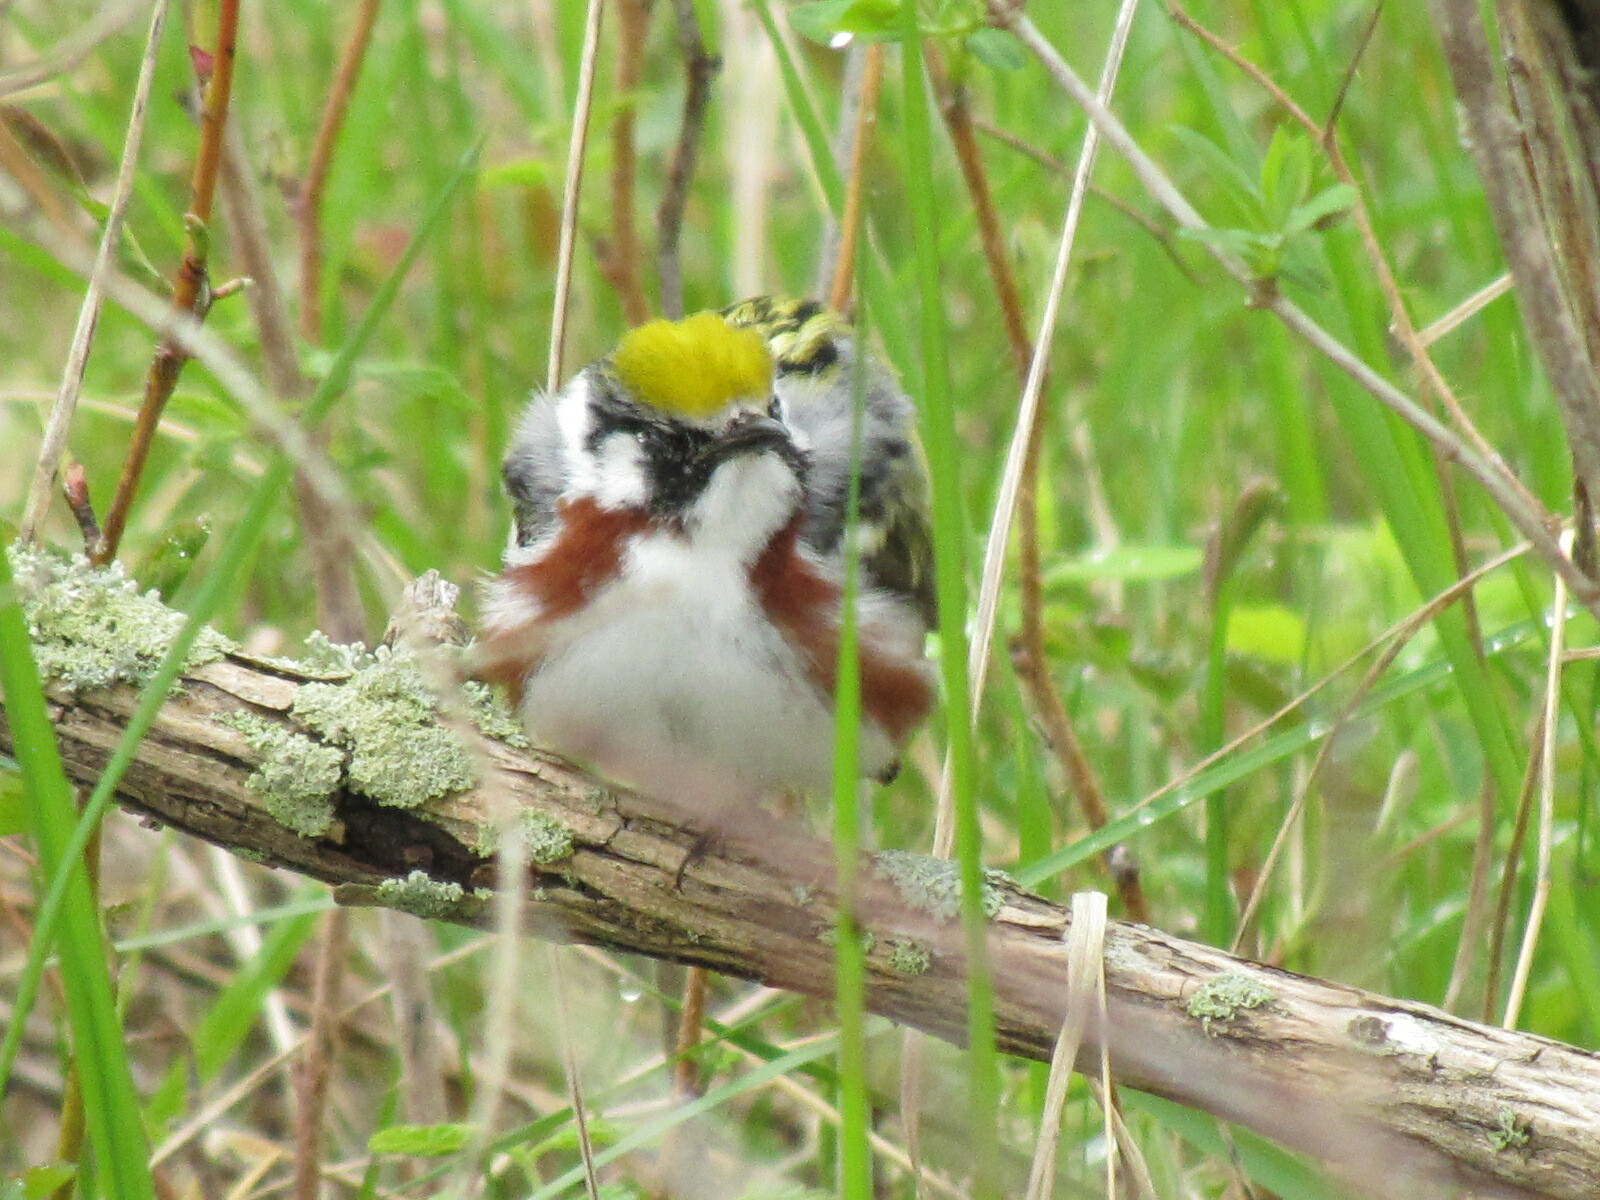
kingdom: Animalia
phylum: Chordata
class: Aves
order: Passeriformes
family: Parulidae
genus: Setophaga
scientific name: Setophaga pensylvanica
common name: Chestnut-sided warbler
